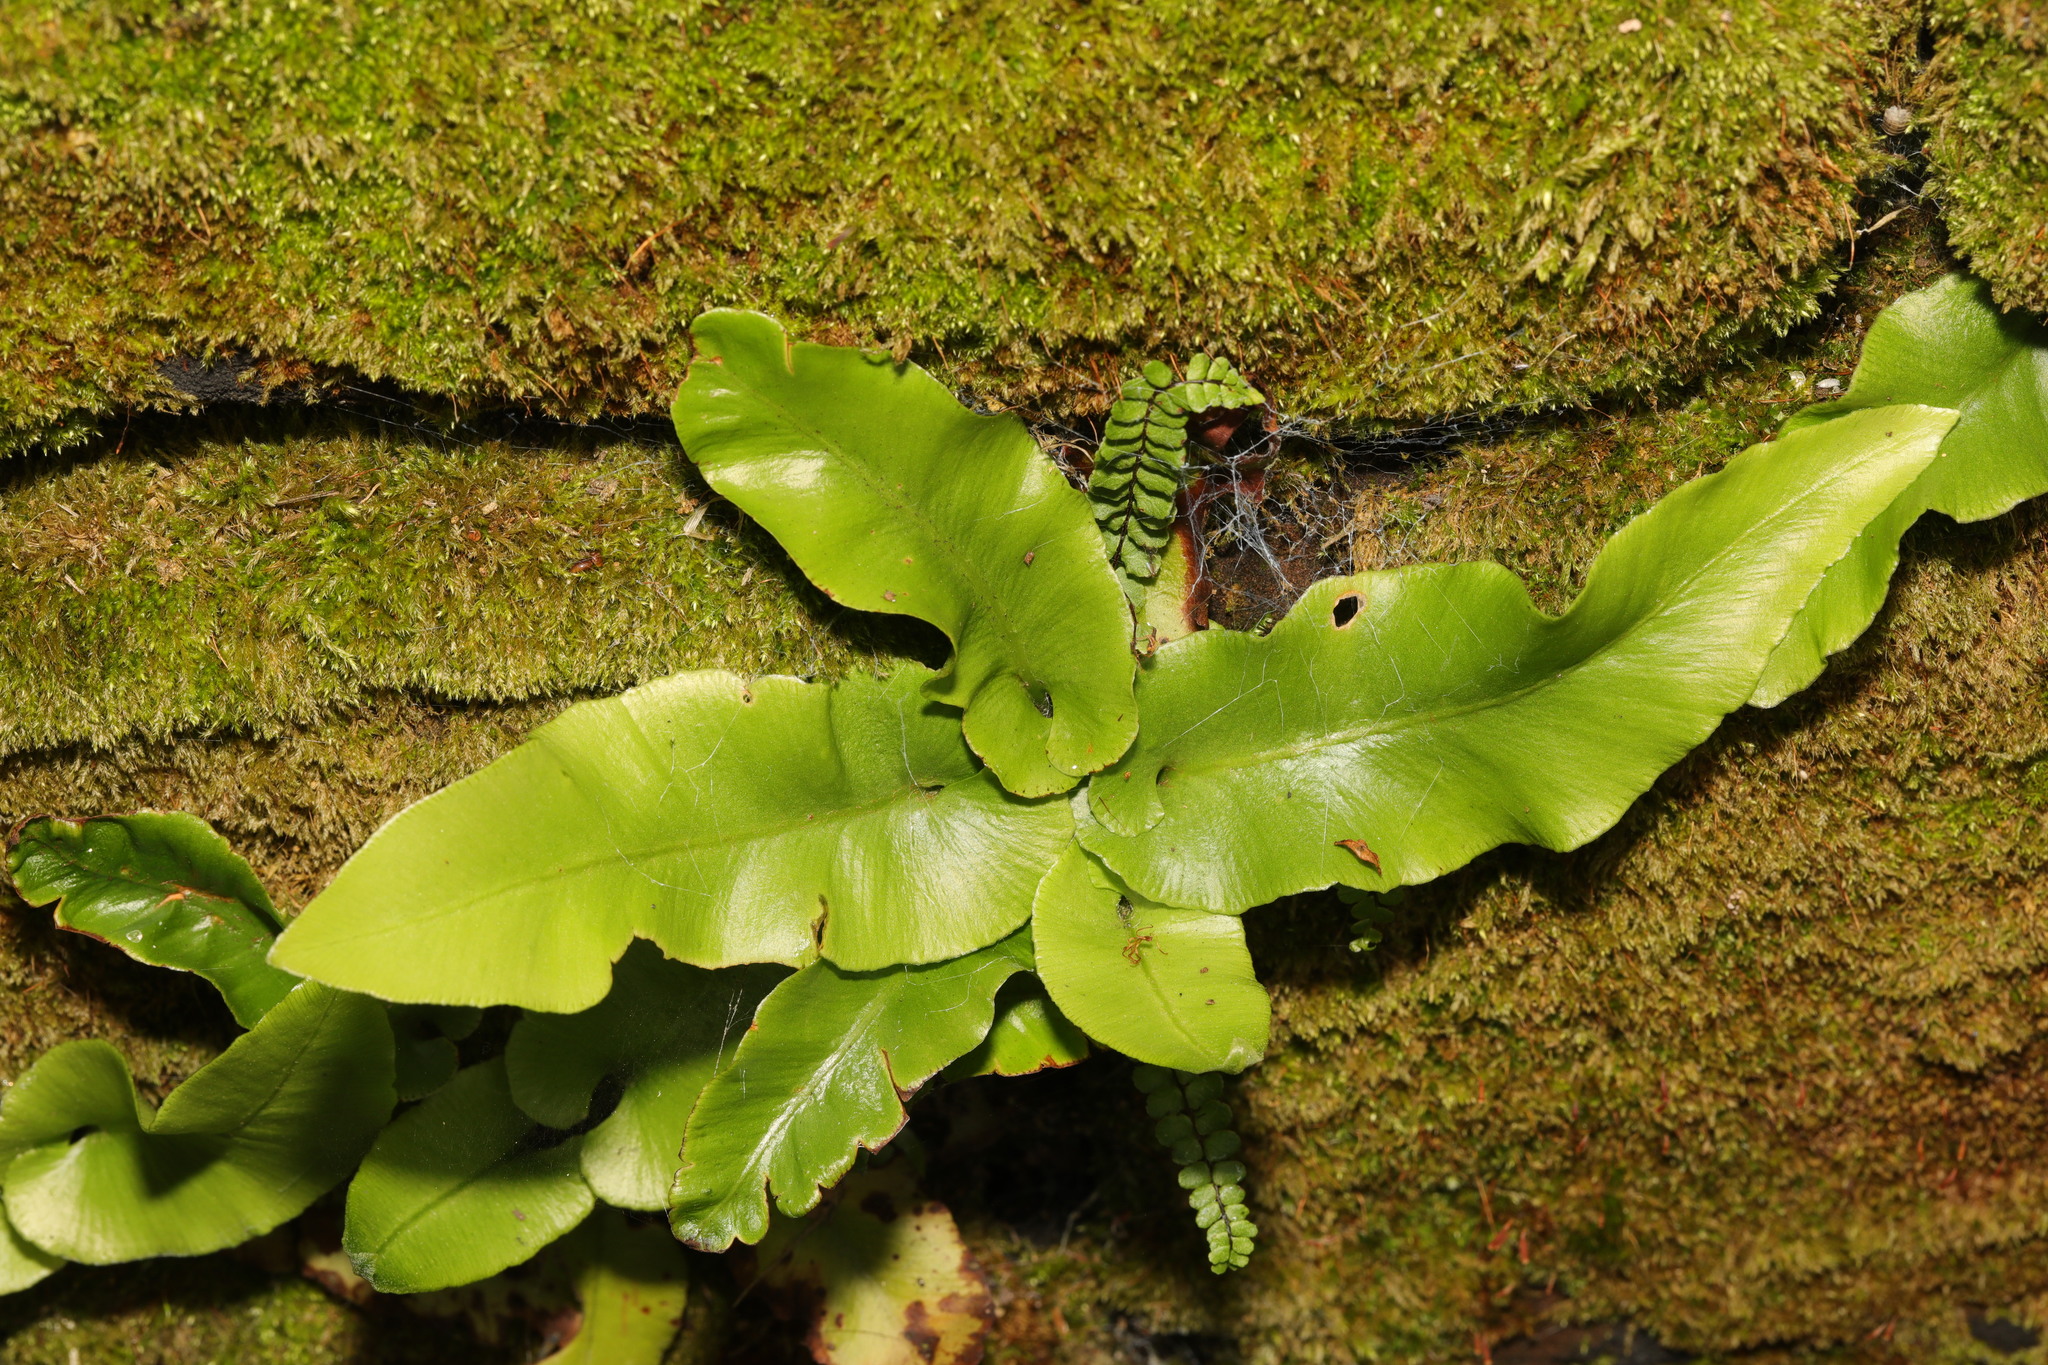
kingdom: Plantae
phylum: Tracheophyta
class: Polypodiopsida
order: Polypodiales
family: Aspleniaceae
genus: Asplenium
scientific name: Asplenium scolopendrium
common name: Hart's-tongue fern
